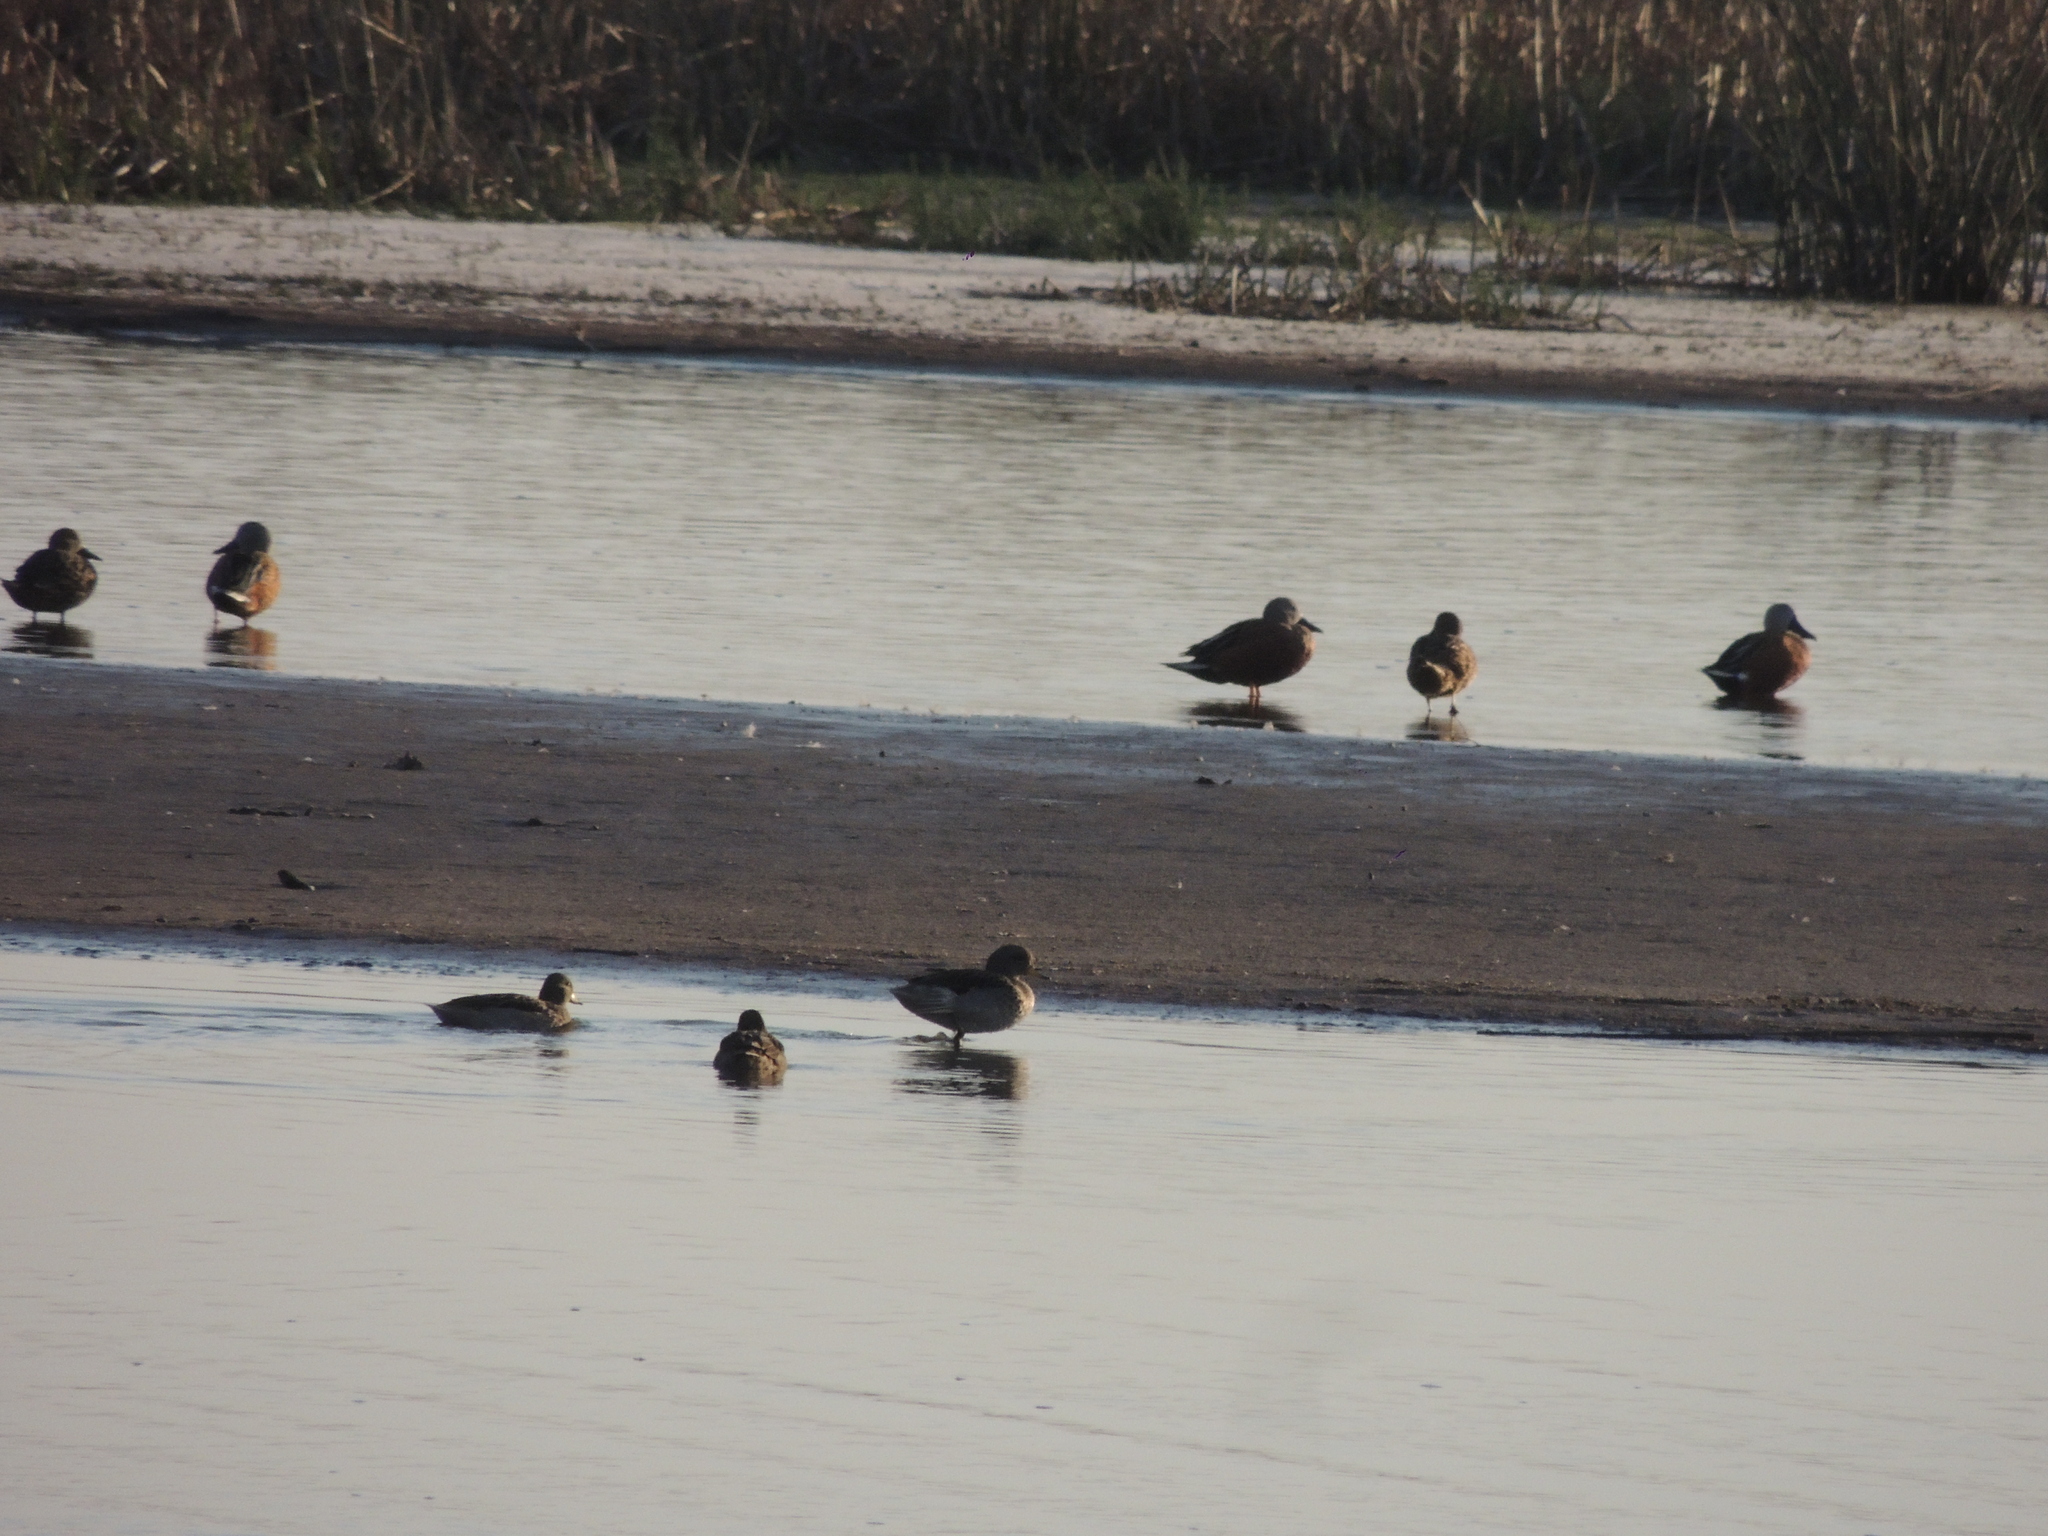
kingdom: Animalia
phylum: Chordata
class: Aves
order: Anseriformes
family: Anatidae
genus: Spatula
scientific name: Spatula platalea
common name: Red shoveler
